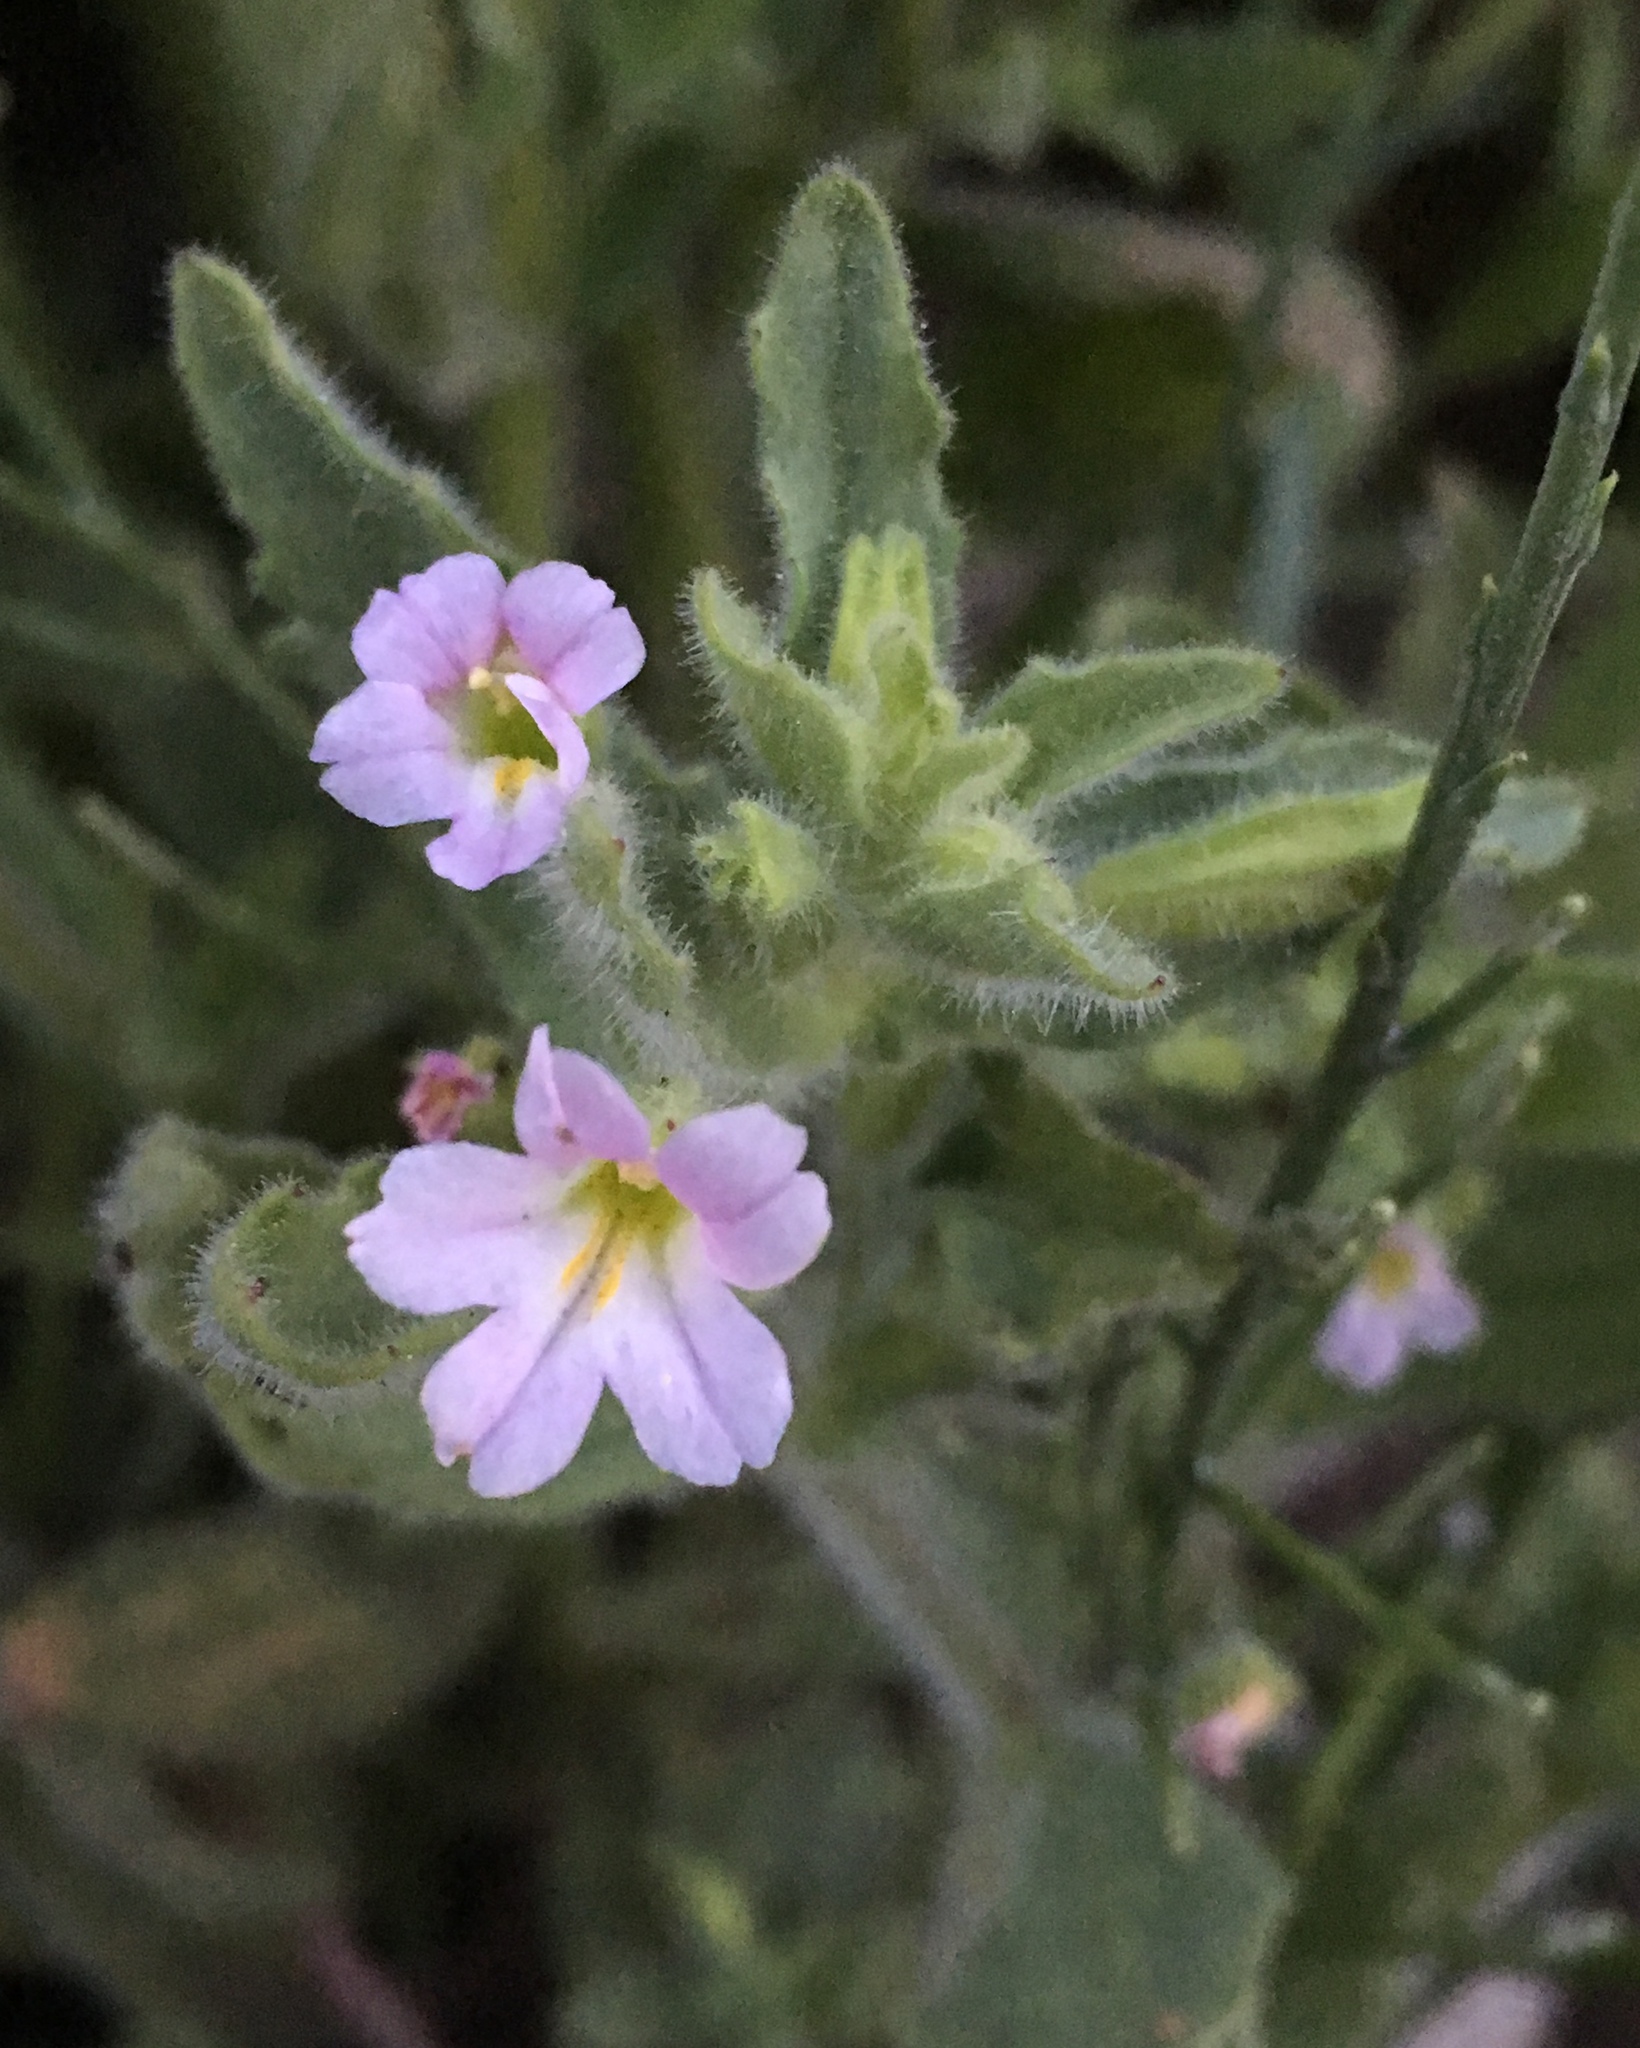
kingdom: Plantae
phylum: Tracheophyta
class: Magnoliopsida
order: Lamiales
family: Phrymaceae
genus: Erythranthe
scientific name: Erythranthe parishii
